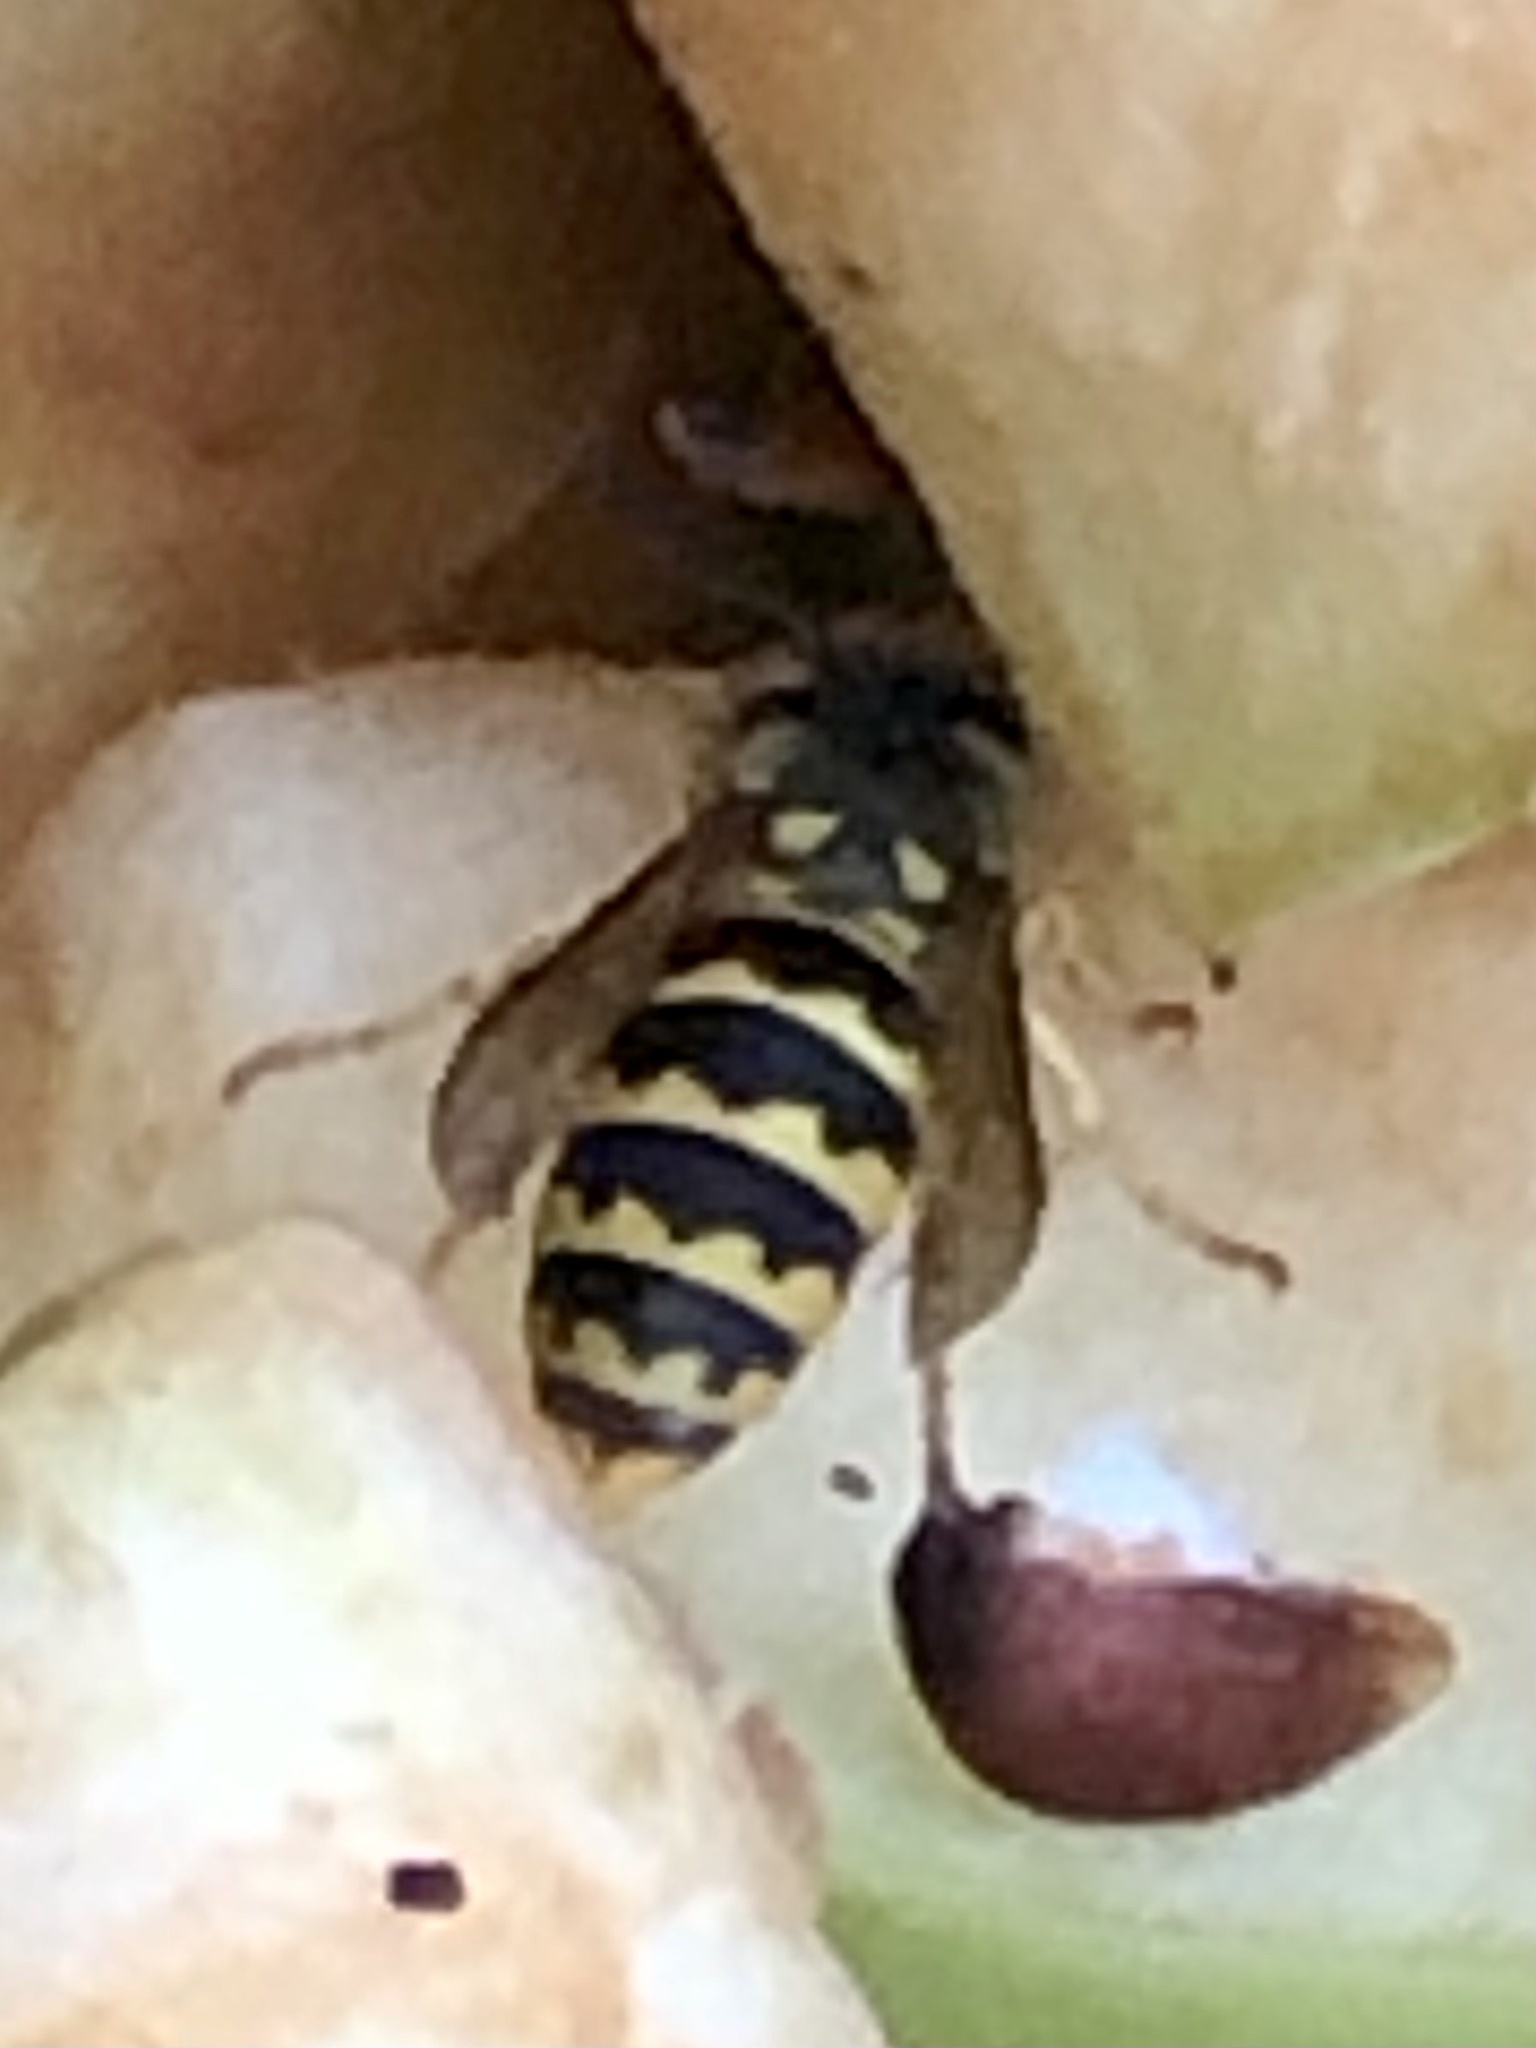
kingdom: Animalia
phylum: Arthropoda
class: Insecta
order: Hymenoptera
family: Vespidae
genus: Vespula
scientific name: Vespula
